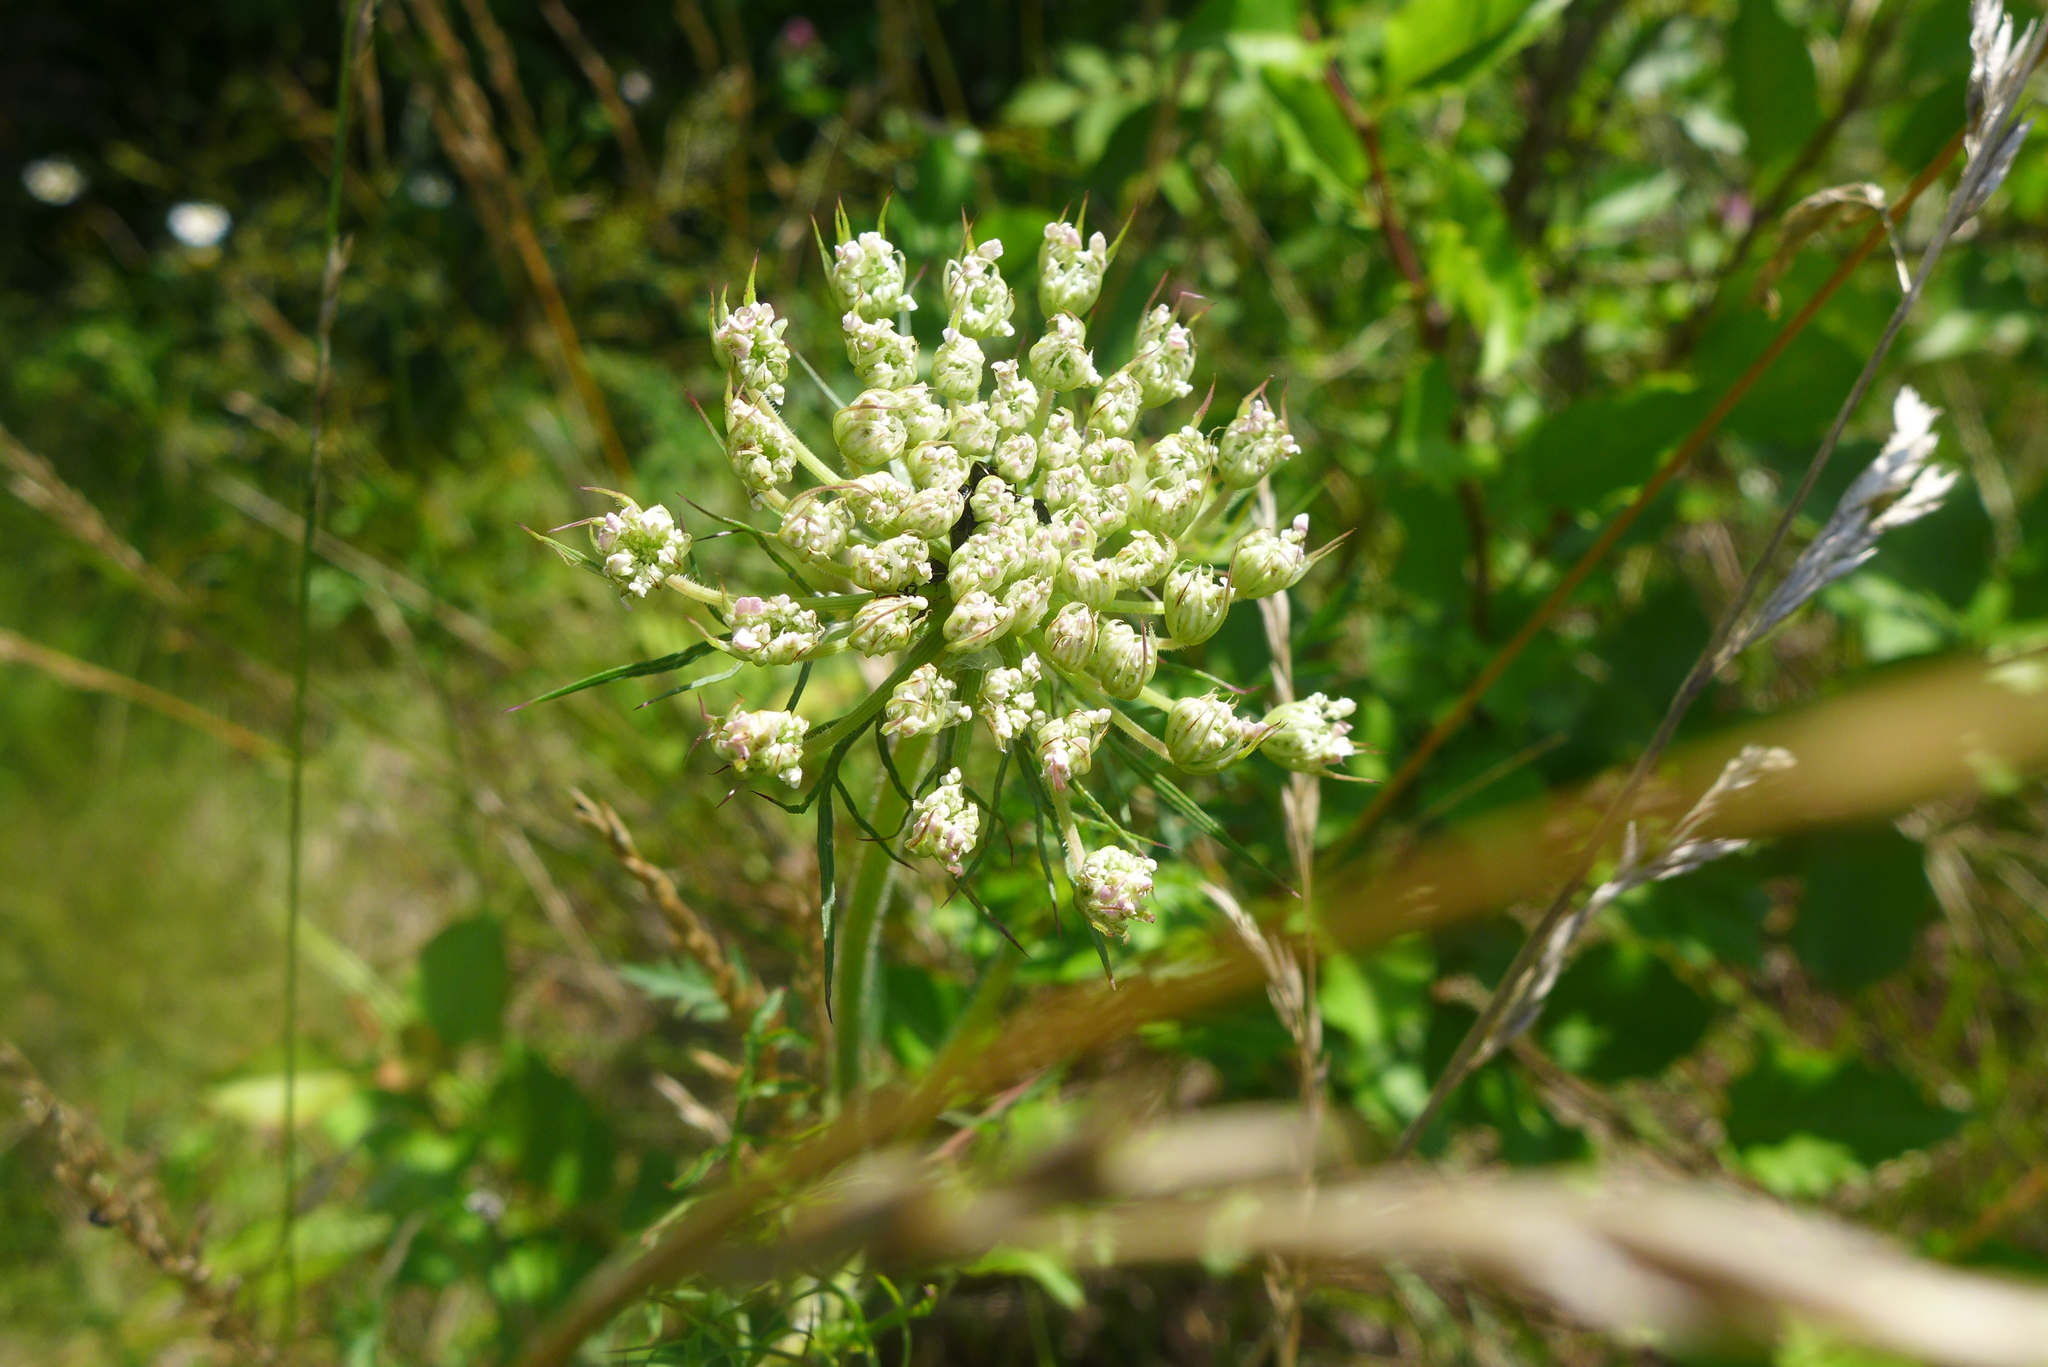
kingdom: Plantae
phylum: Tracheophyta
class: Magnoliopsida
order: Apiales
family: Apiaceae
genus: Daucus
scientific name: Daucus carota
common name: Wild carrot
